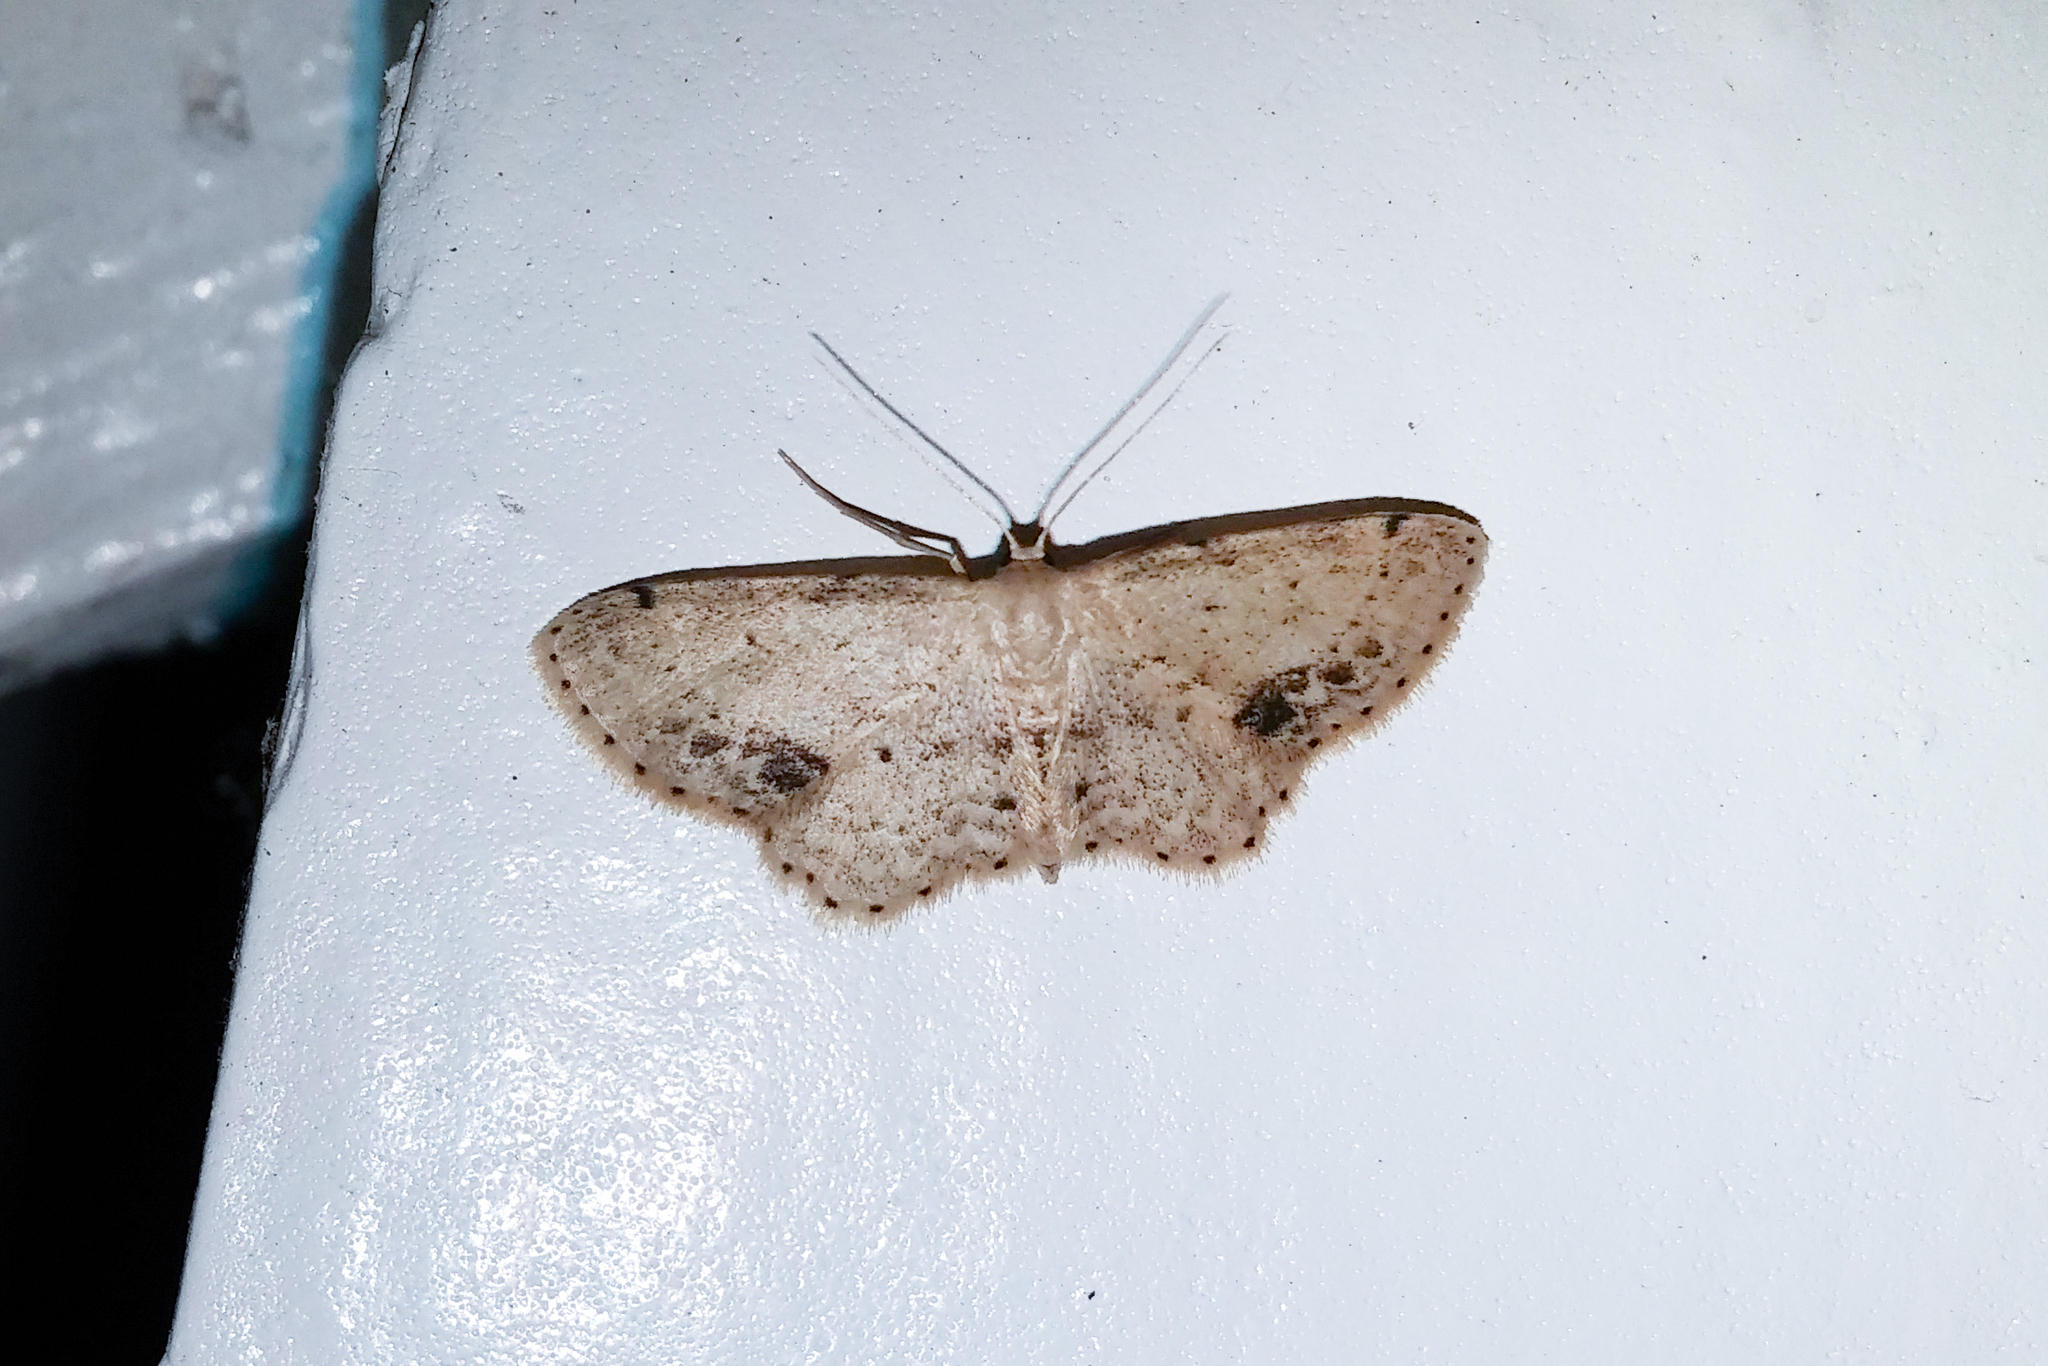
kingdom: Animalia
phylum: Arthropoda
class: Insecta
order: Lepidoptera
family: Geometridae
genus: Idaea
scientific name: Idaea dimidiata
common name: Single-dotted wave
